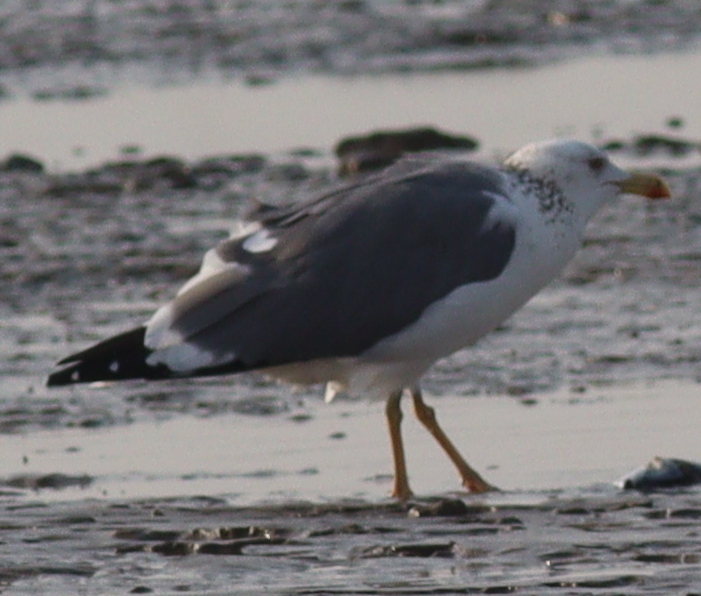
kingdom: Animalia
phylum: Chordata
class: Aves
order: Charadriiformes
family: Laridae
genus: Larus
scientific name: Larus fuscus
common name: Lesser black-backed gull
